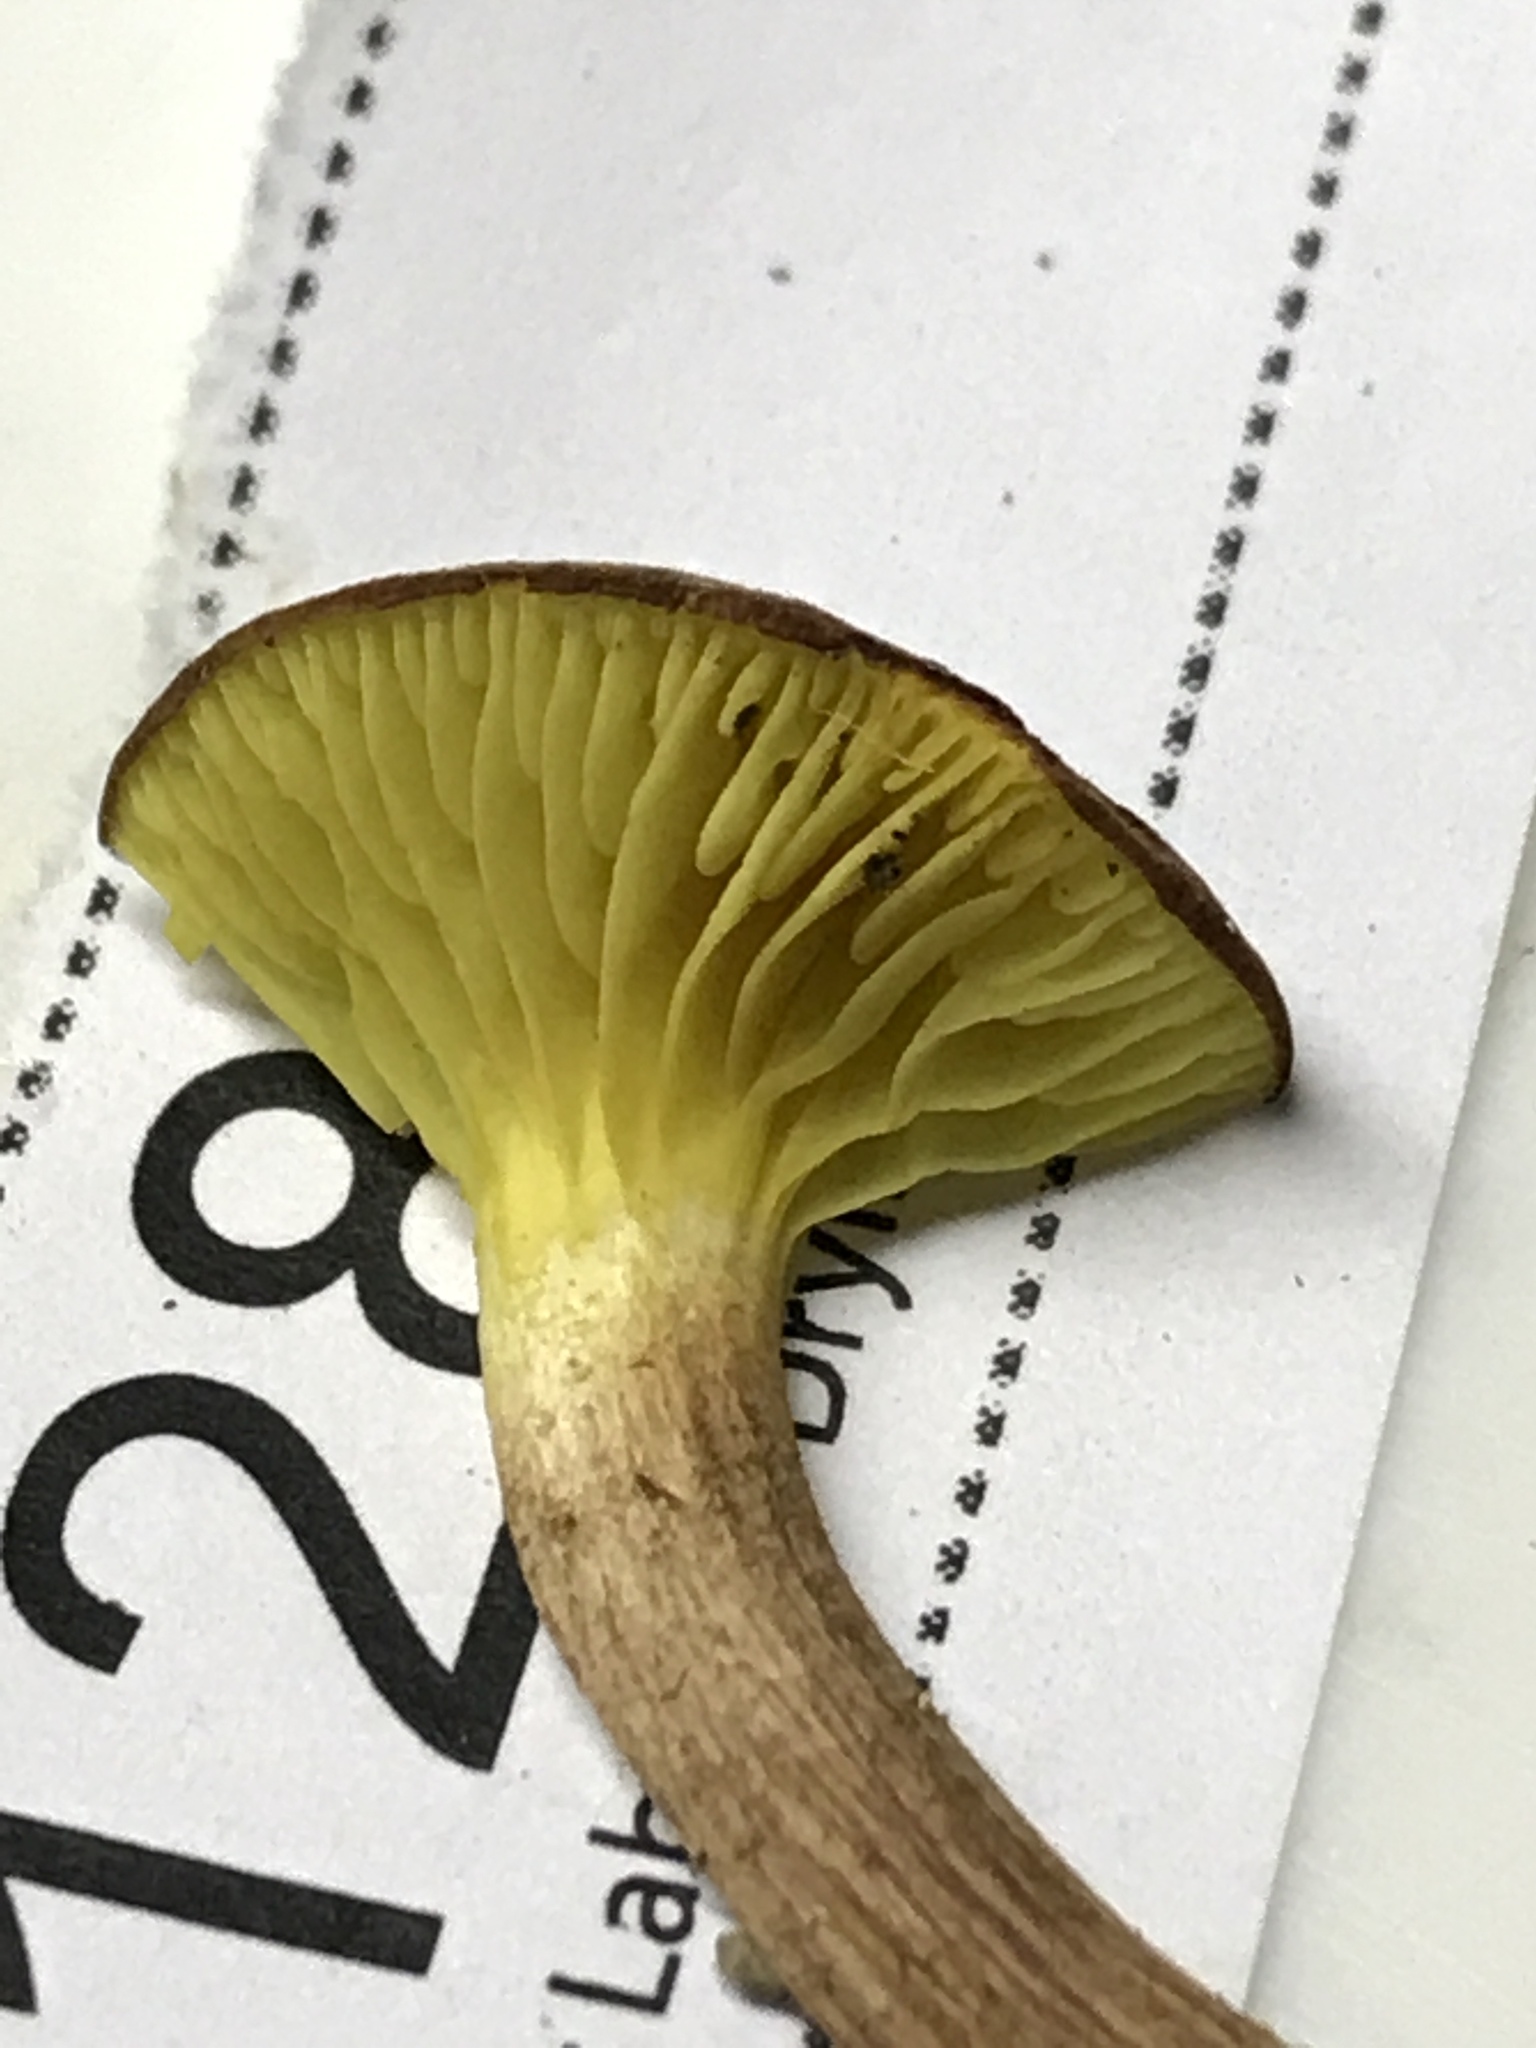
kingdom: Fungi
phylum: Basidiomycota
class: Agaricomycetes
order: Boletales
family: Boletaceae
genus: Phylloporus
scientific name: Phylloporus rhodoxanthus
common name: Golden gilled bolete
